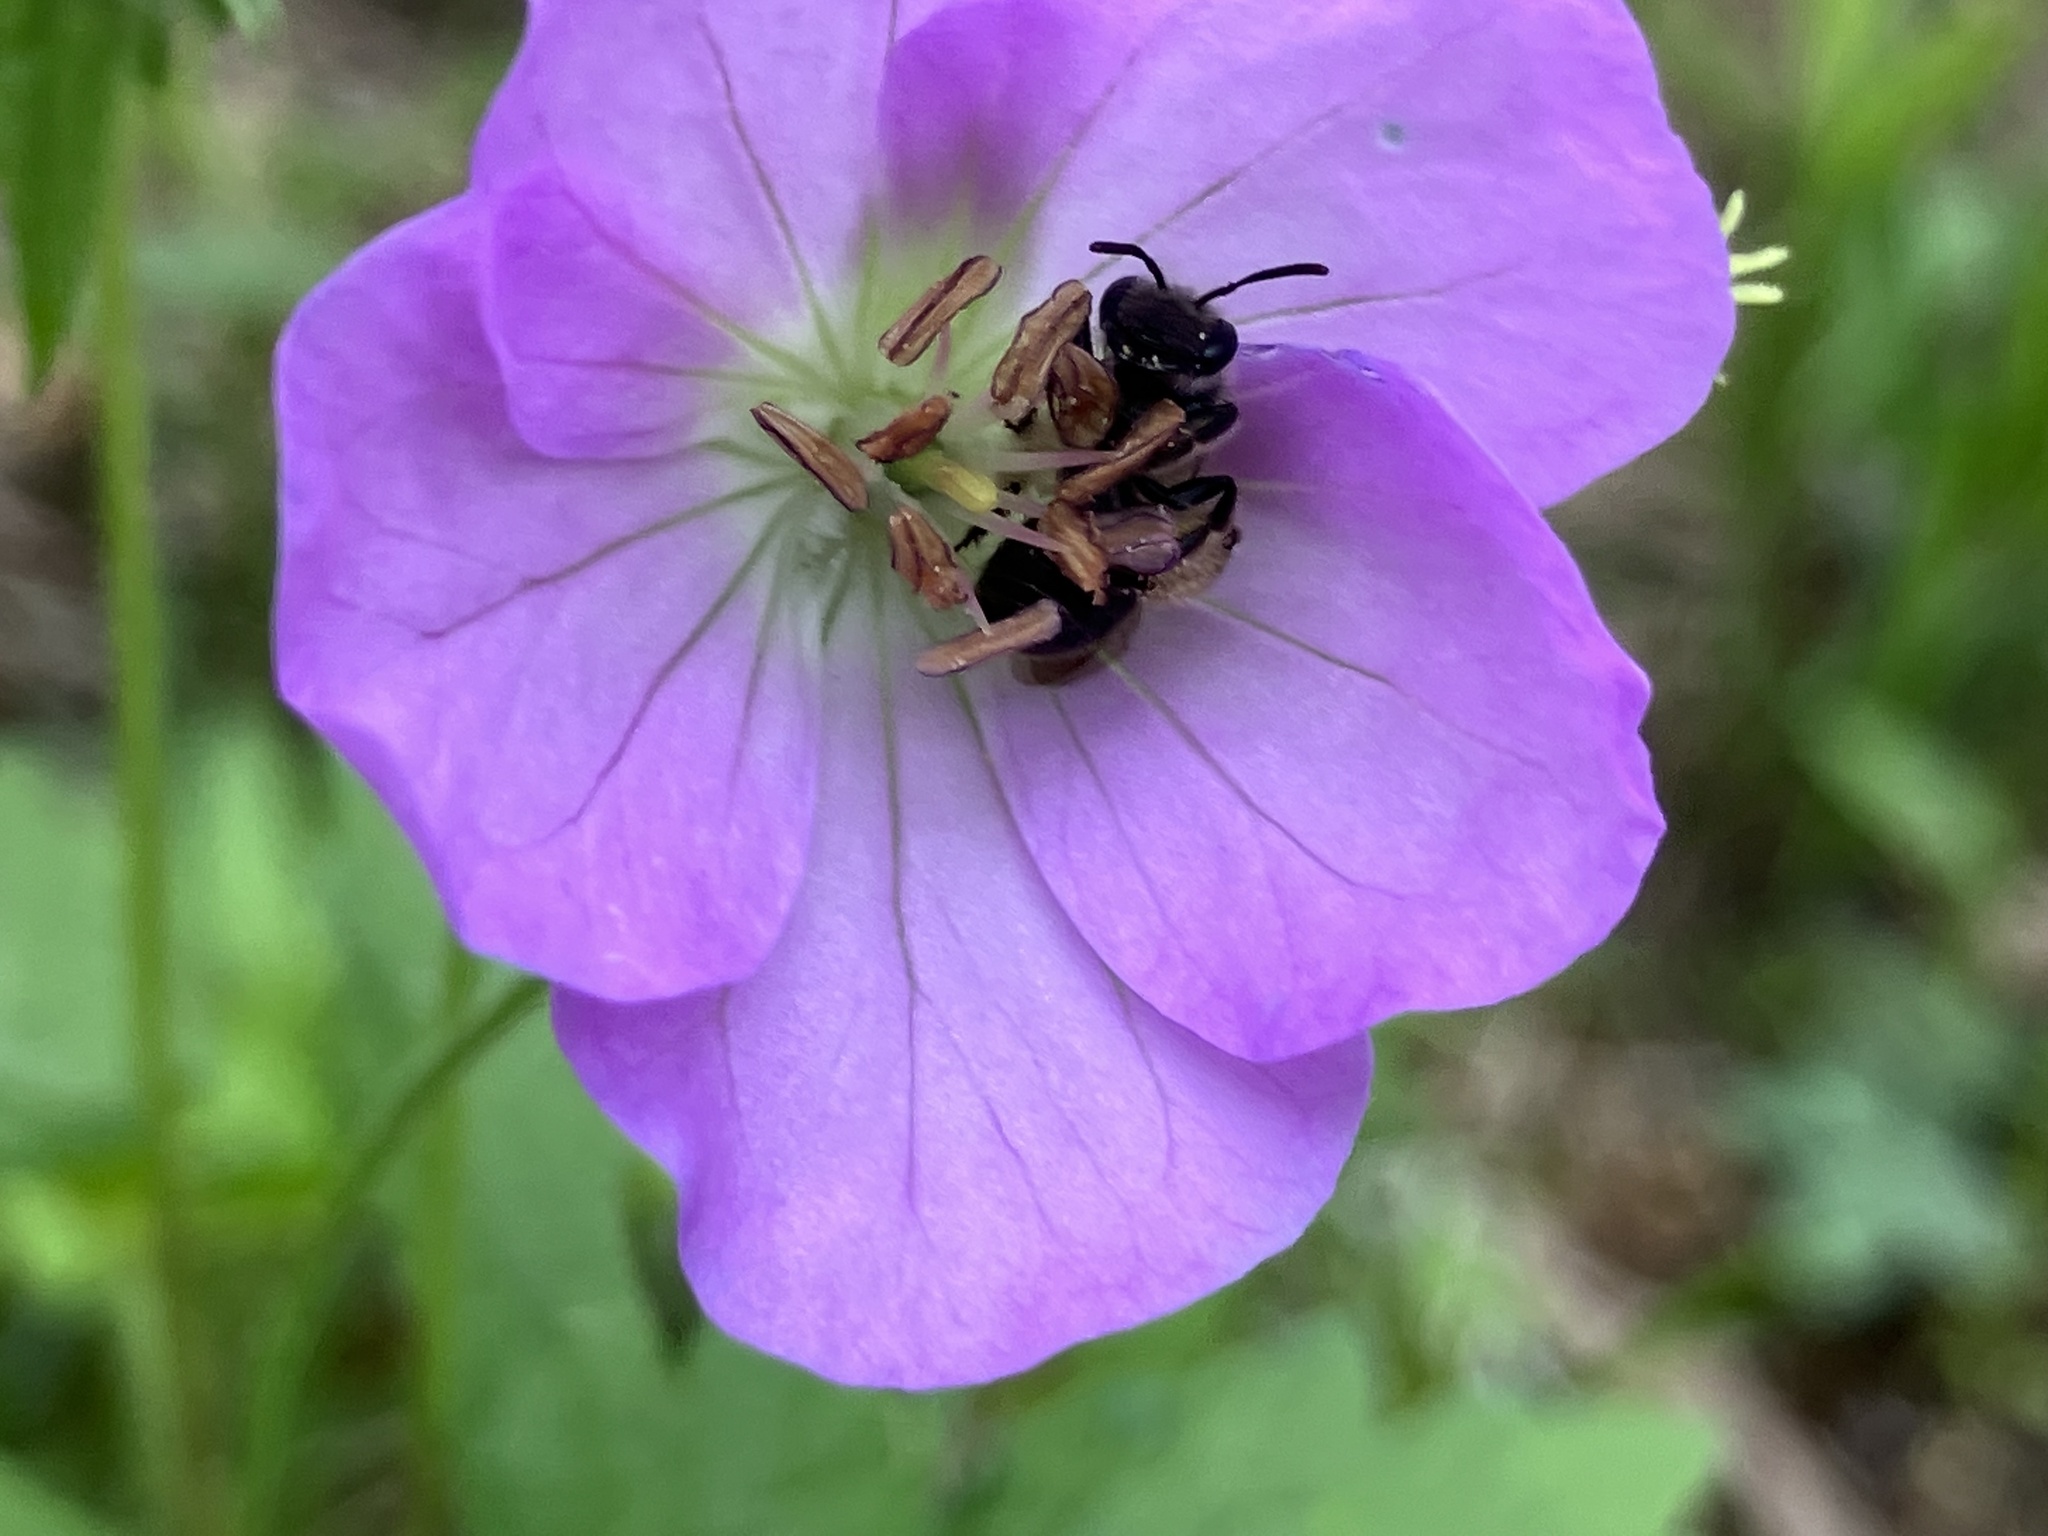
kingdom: Plantae
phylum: Tracheophyta
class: Magnoliopsida
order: Geraniales
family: Geraniaceae
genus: Geranium
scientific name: Geranium maculatum
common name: Spotted geranium
